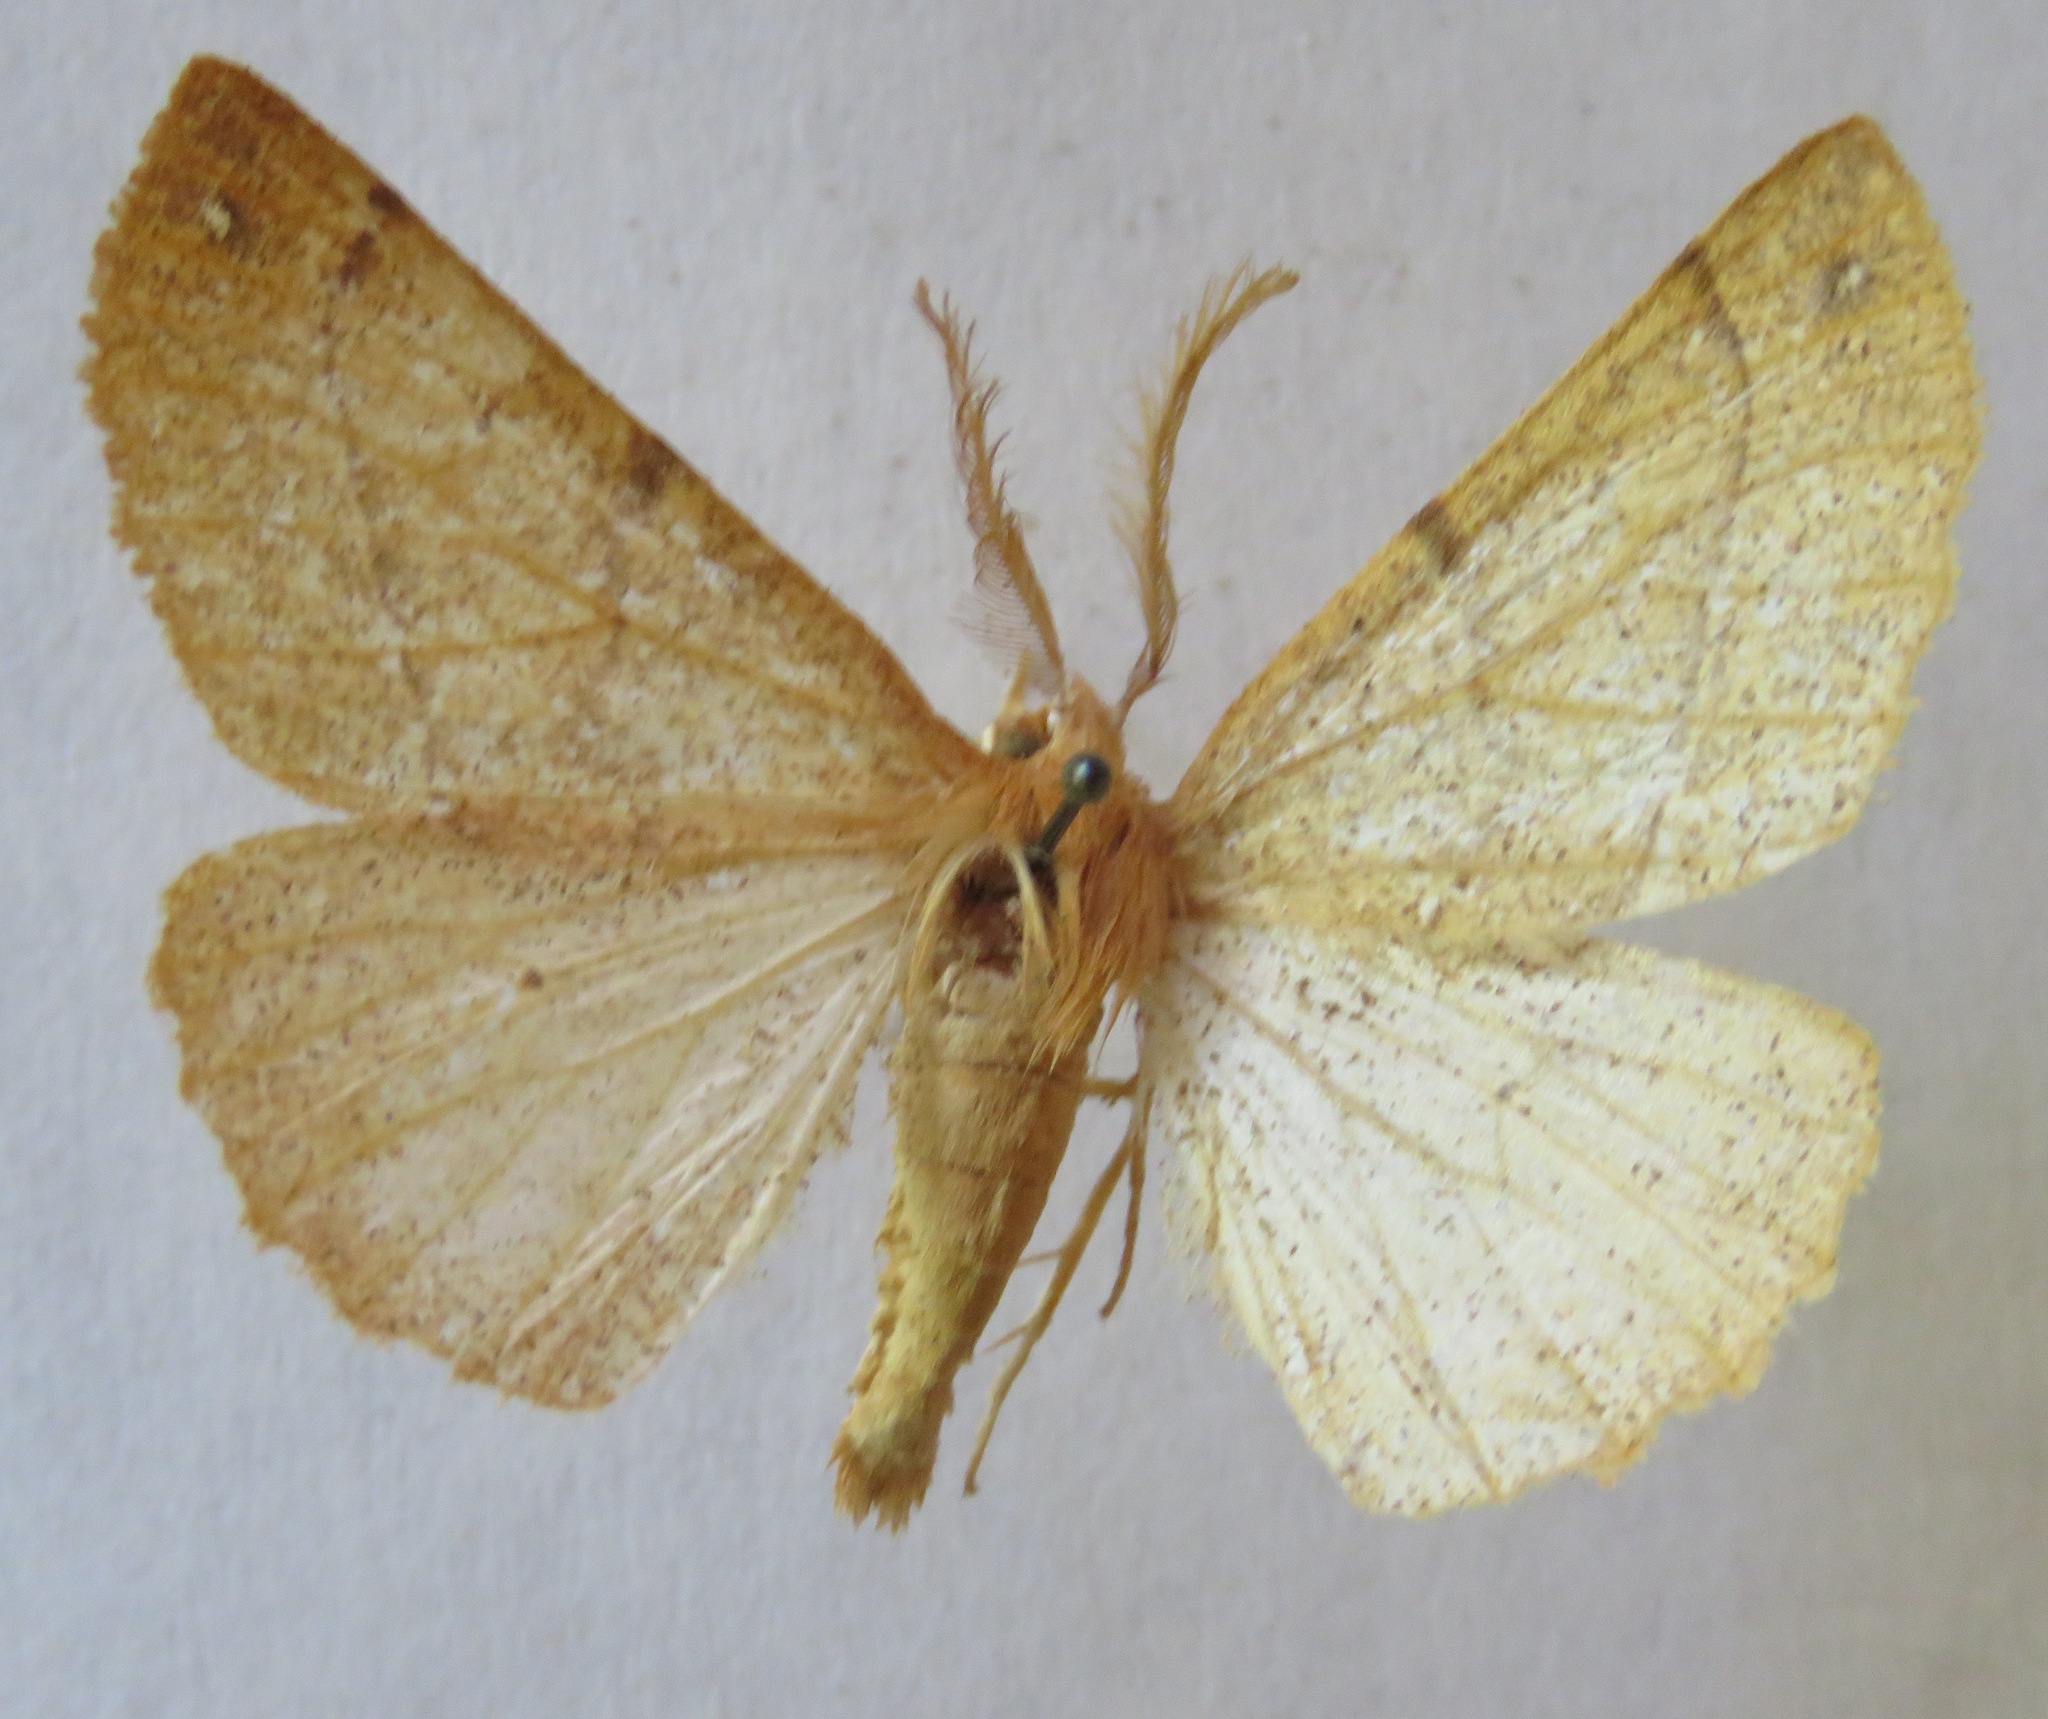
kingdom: Animalia
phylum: Arthropoda
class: Insecta
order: Lepidoptera
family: Geometridae
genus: Colotois
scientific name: Colotois pennaria
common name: Feathered thorn
